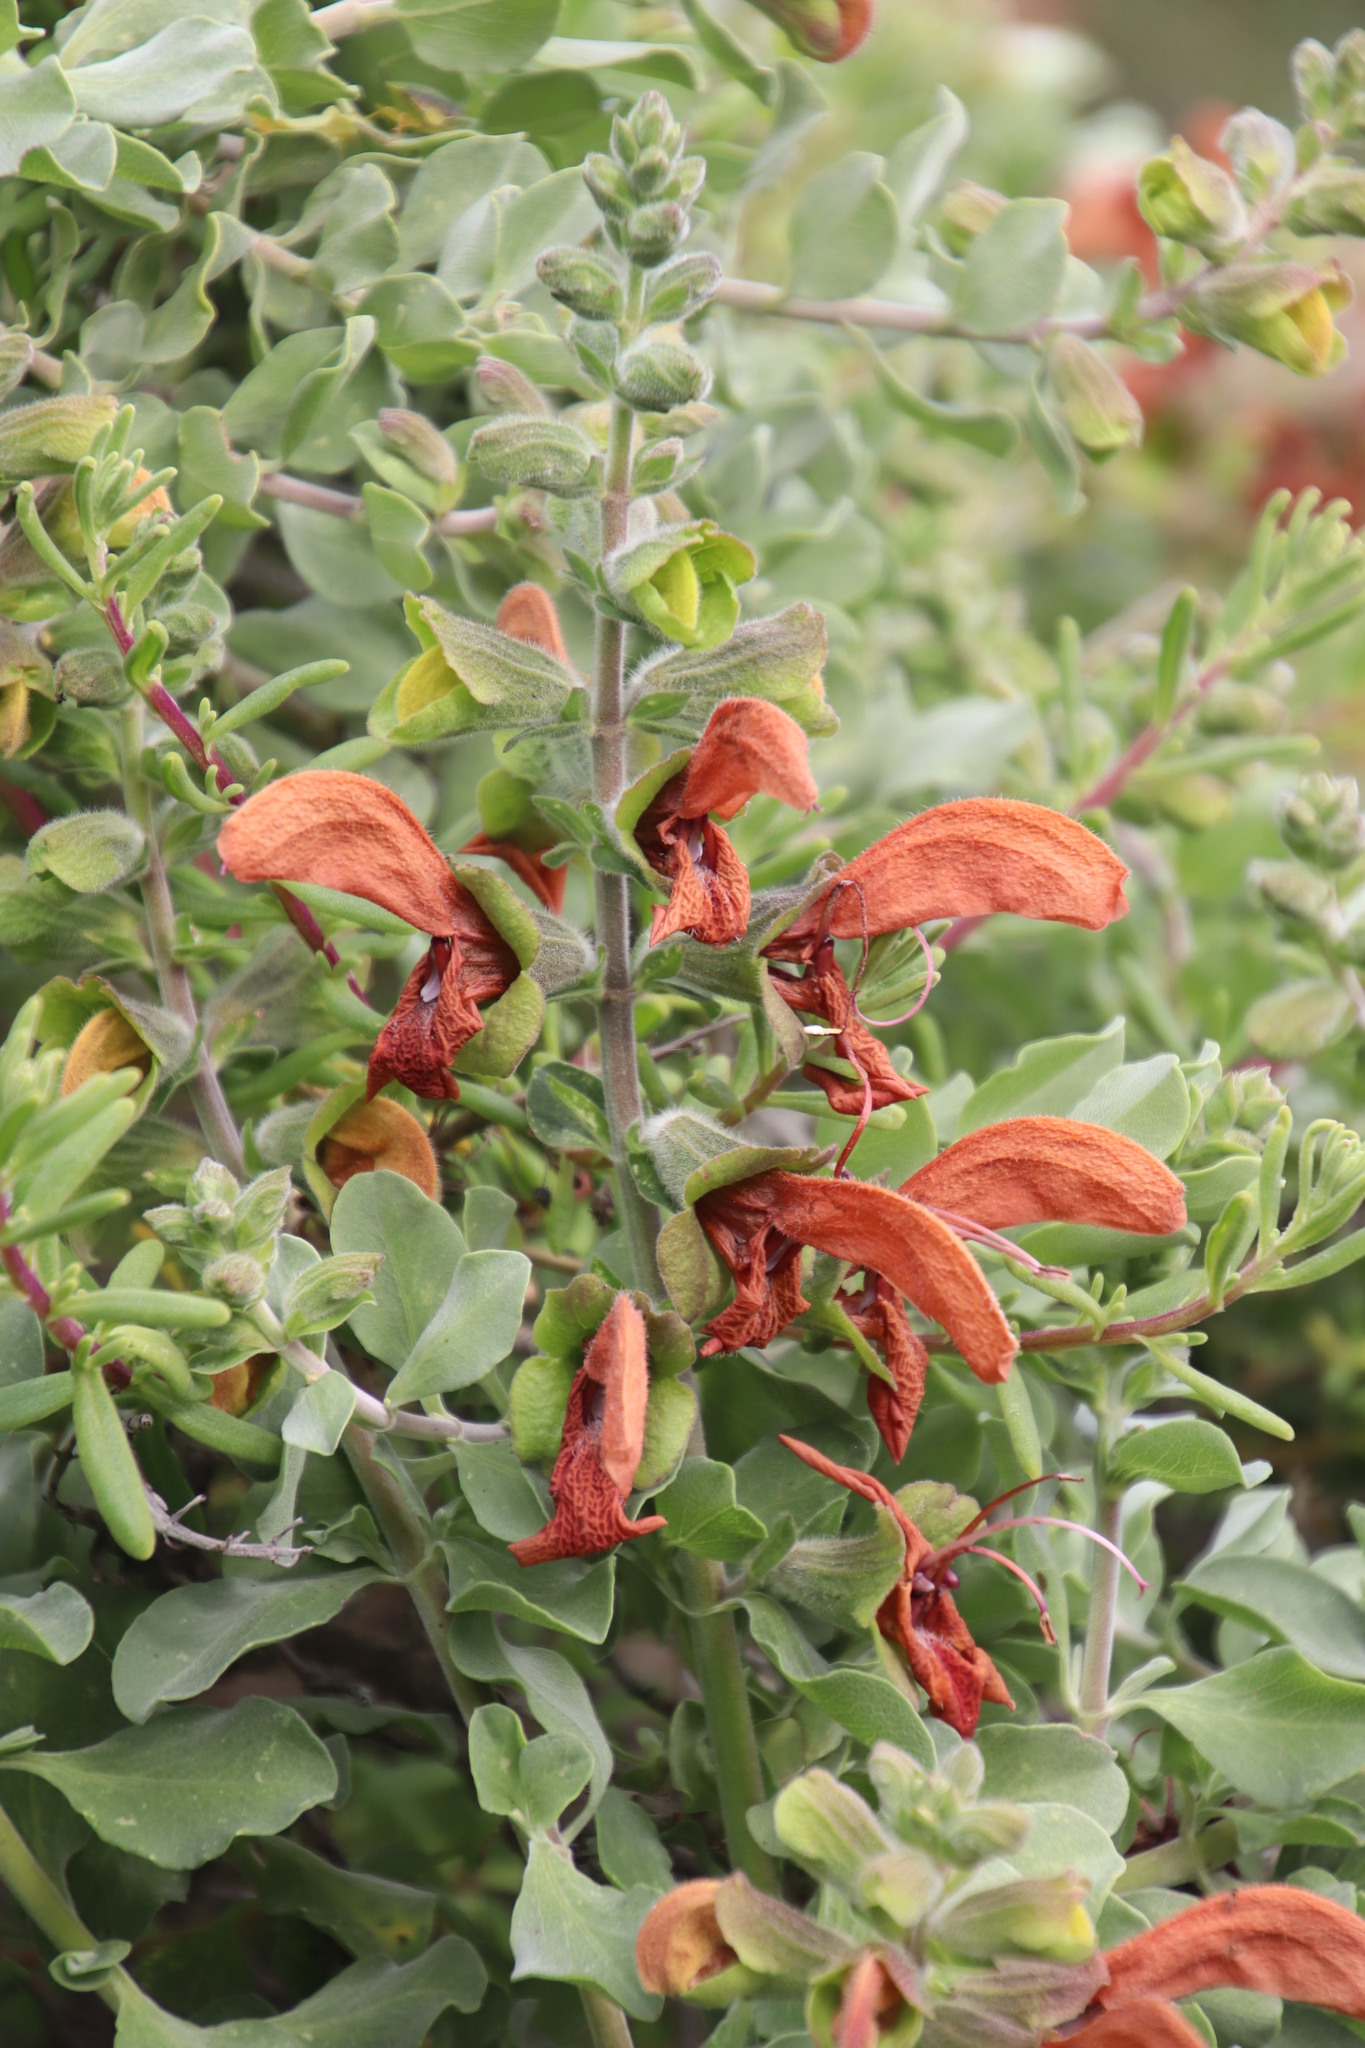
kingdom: Plantae
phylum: Tracheophyta
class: Magnoliopsida
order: Lamiales
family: Lamiaceae
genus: Salvia
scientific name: Salvia aurea
